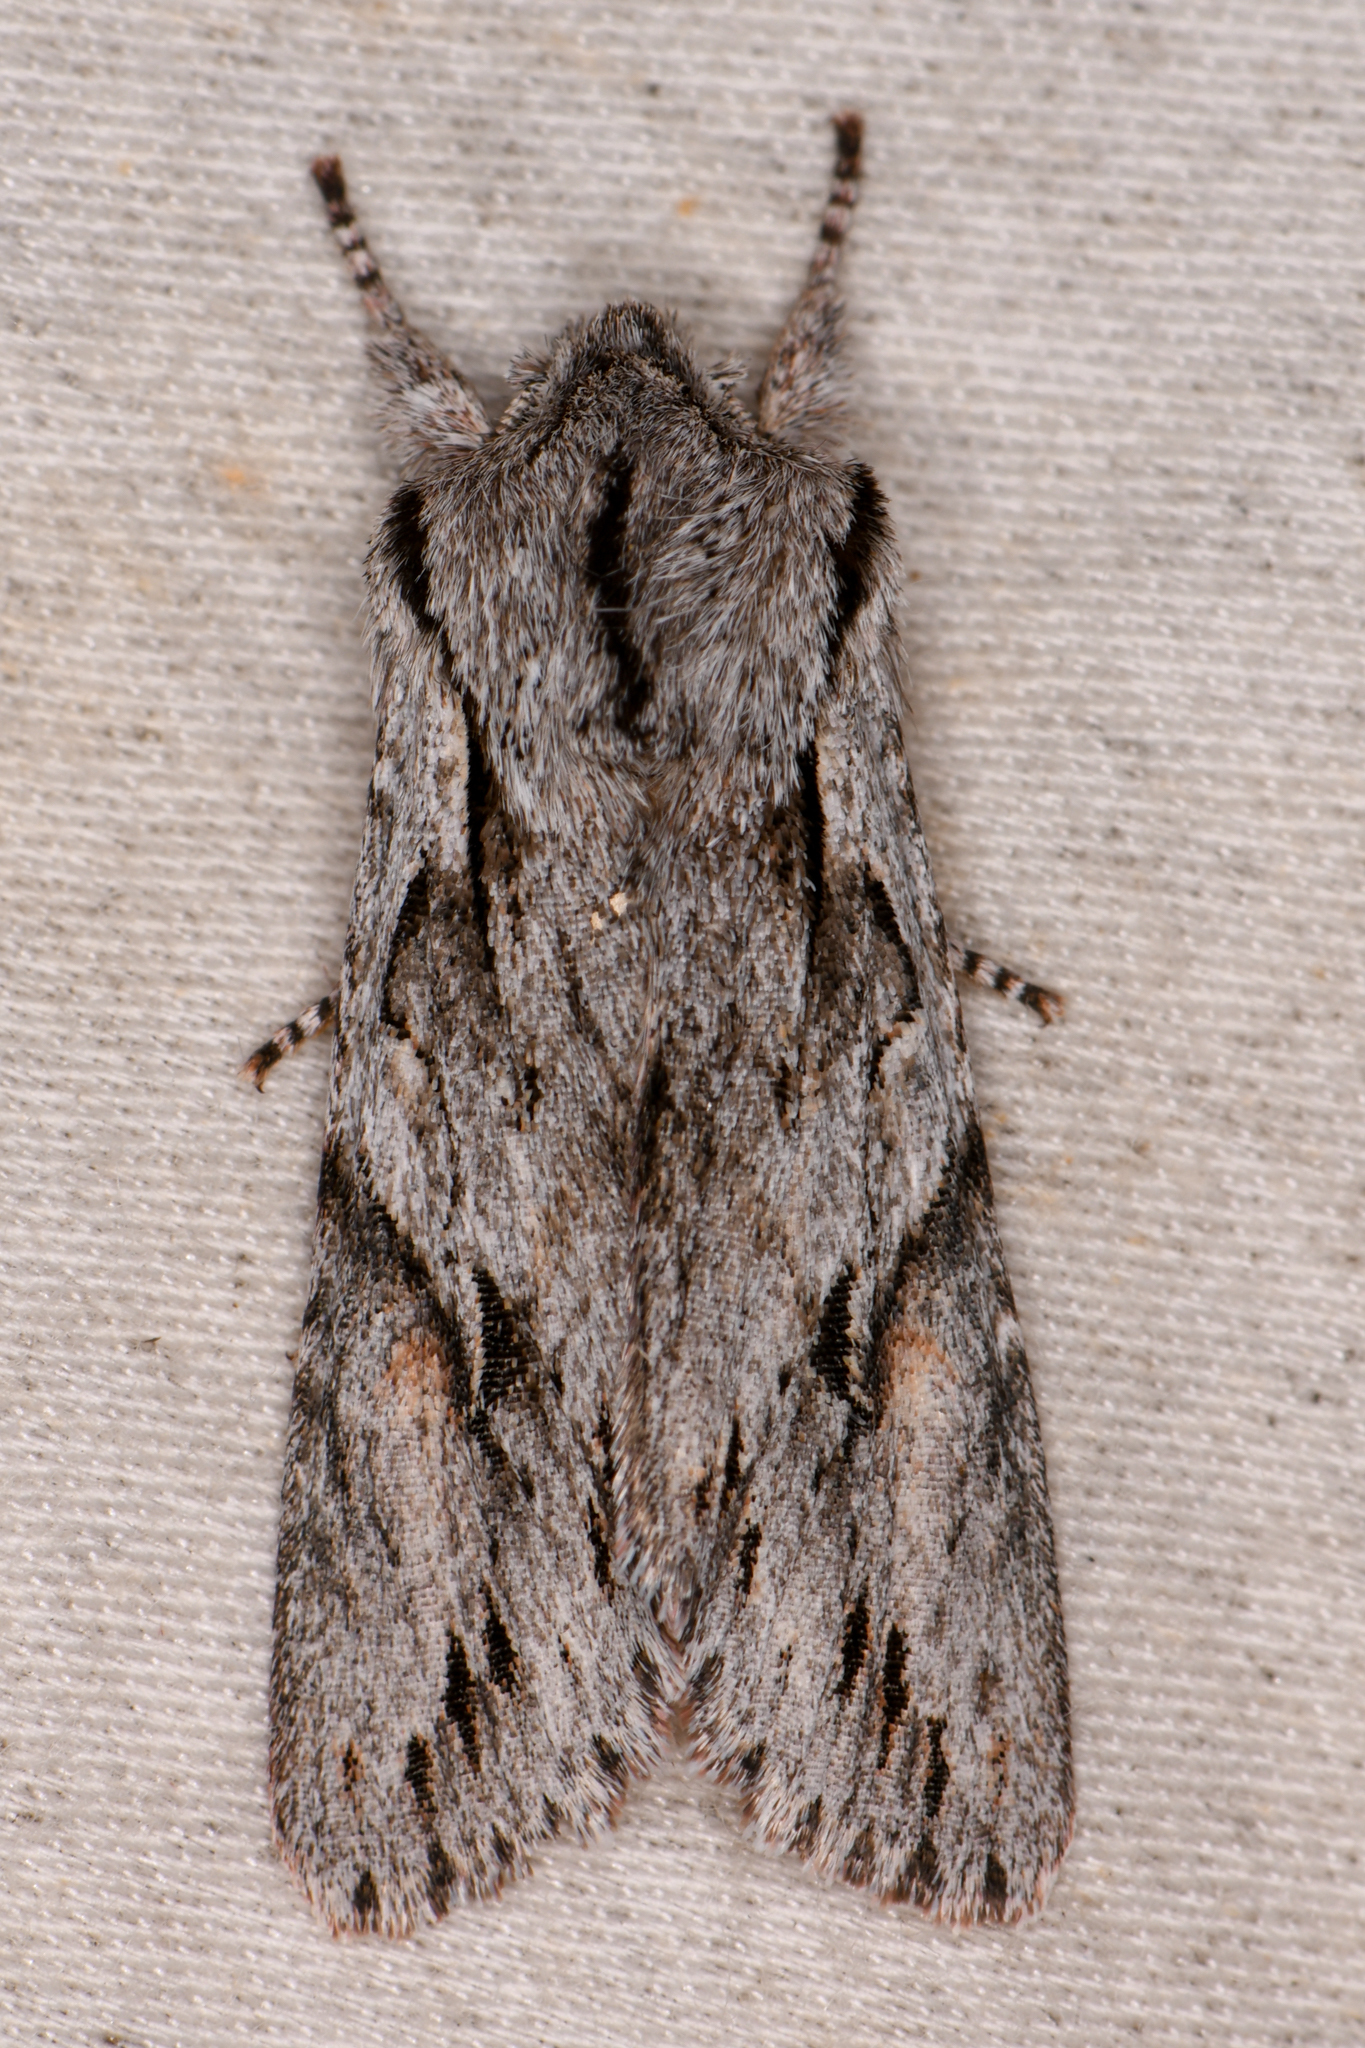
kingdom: Animalia
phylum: Arthropoda
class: Insecta
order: Lepidoptera
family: Noctuidae
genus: Egira
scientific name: Egira crucialis
